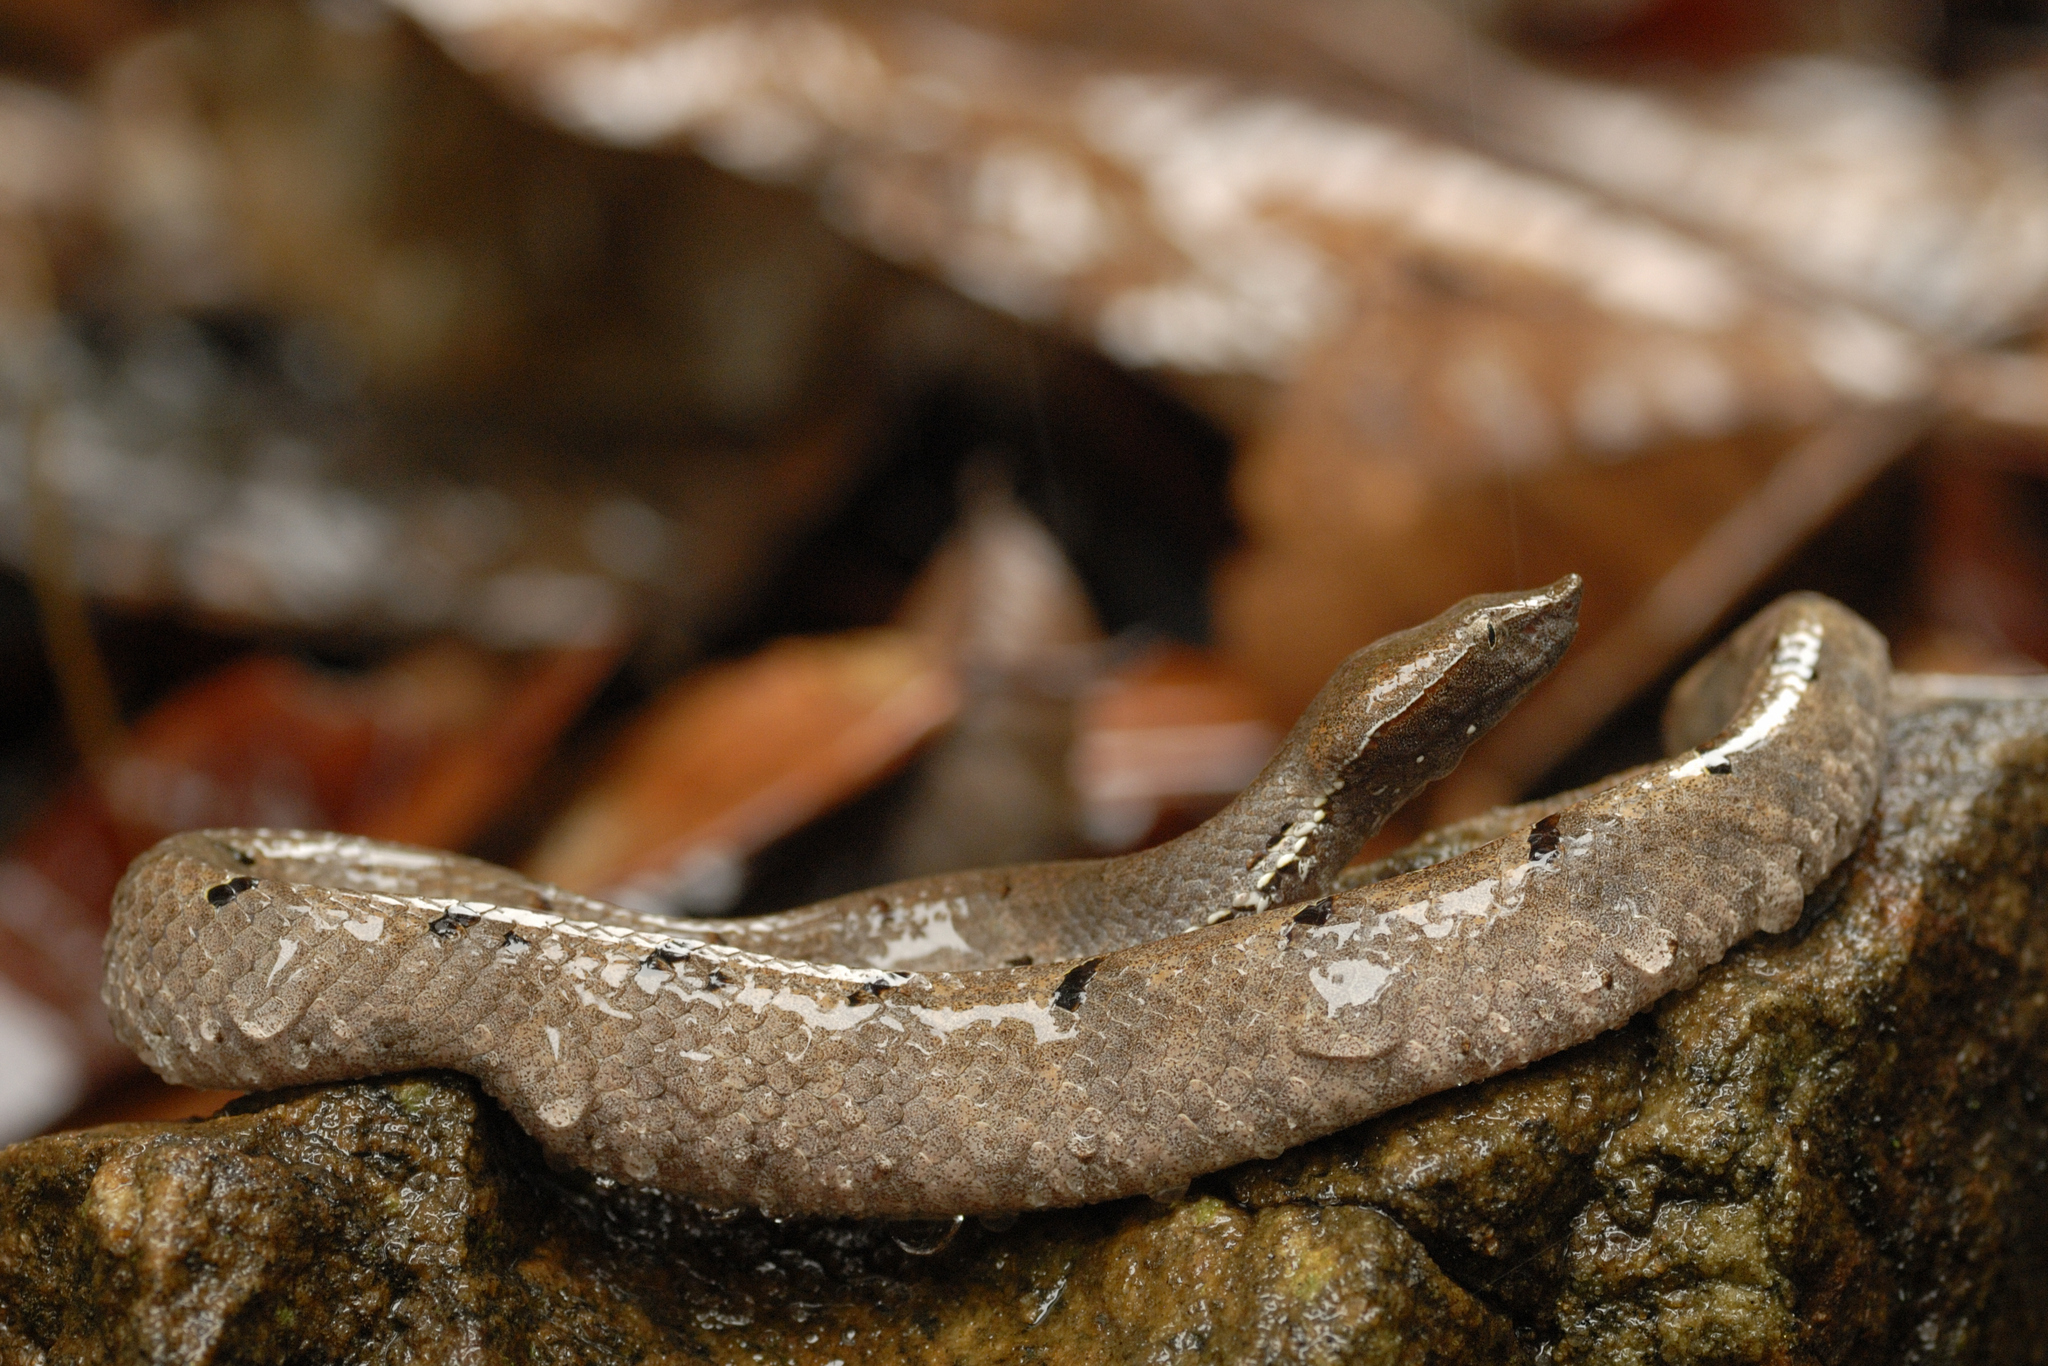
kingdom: Animalia
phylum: Chordata
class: Squamata
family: Viperidae
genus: Hypnale
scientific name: Hypnale hypnale
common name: Hump-nosed moccasin
